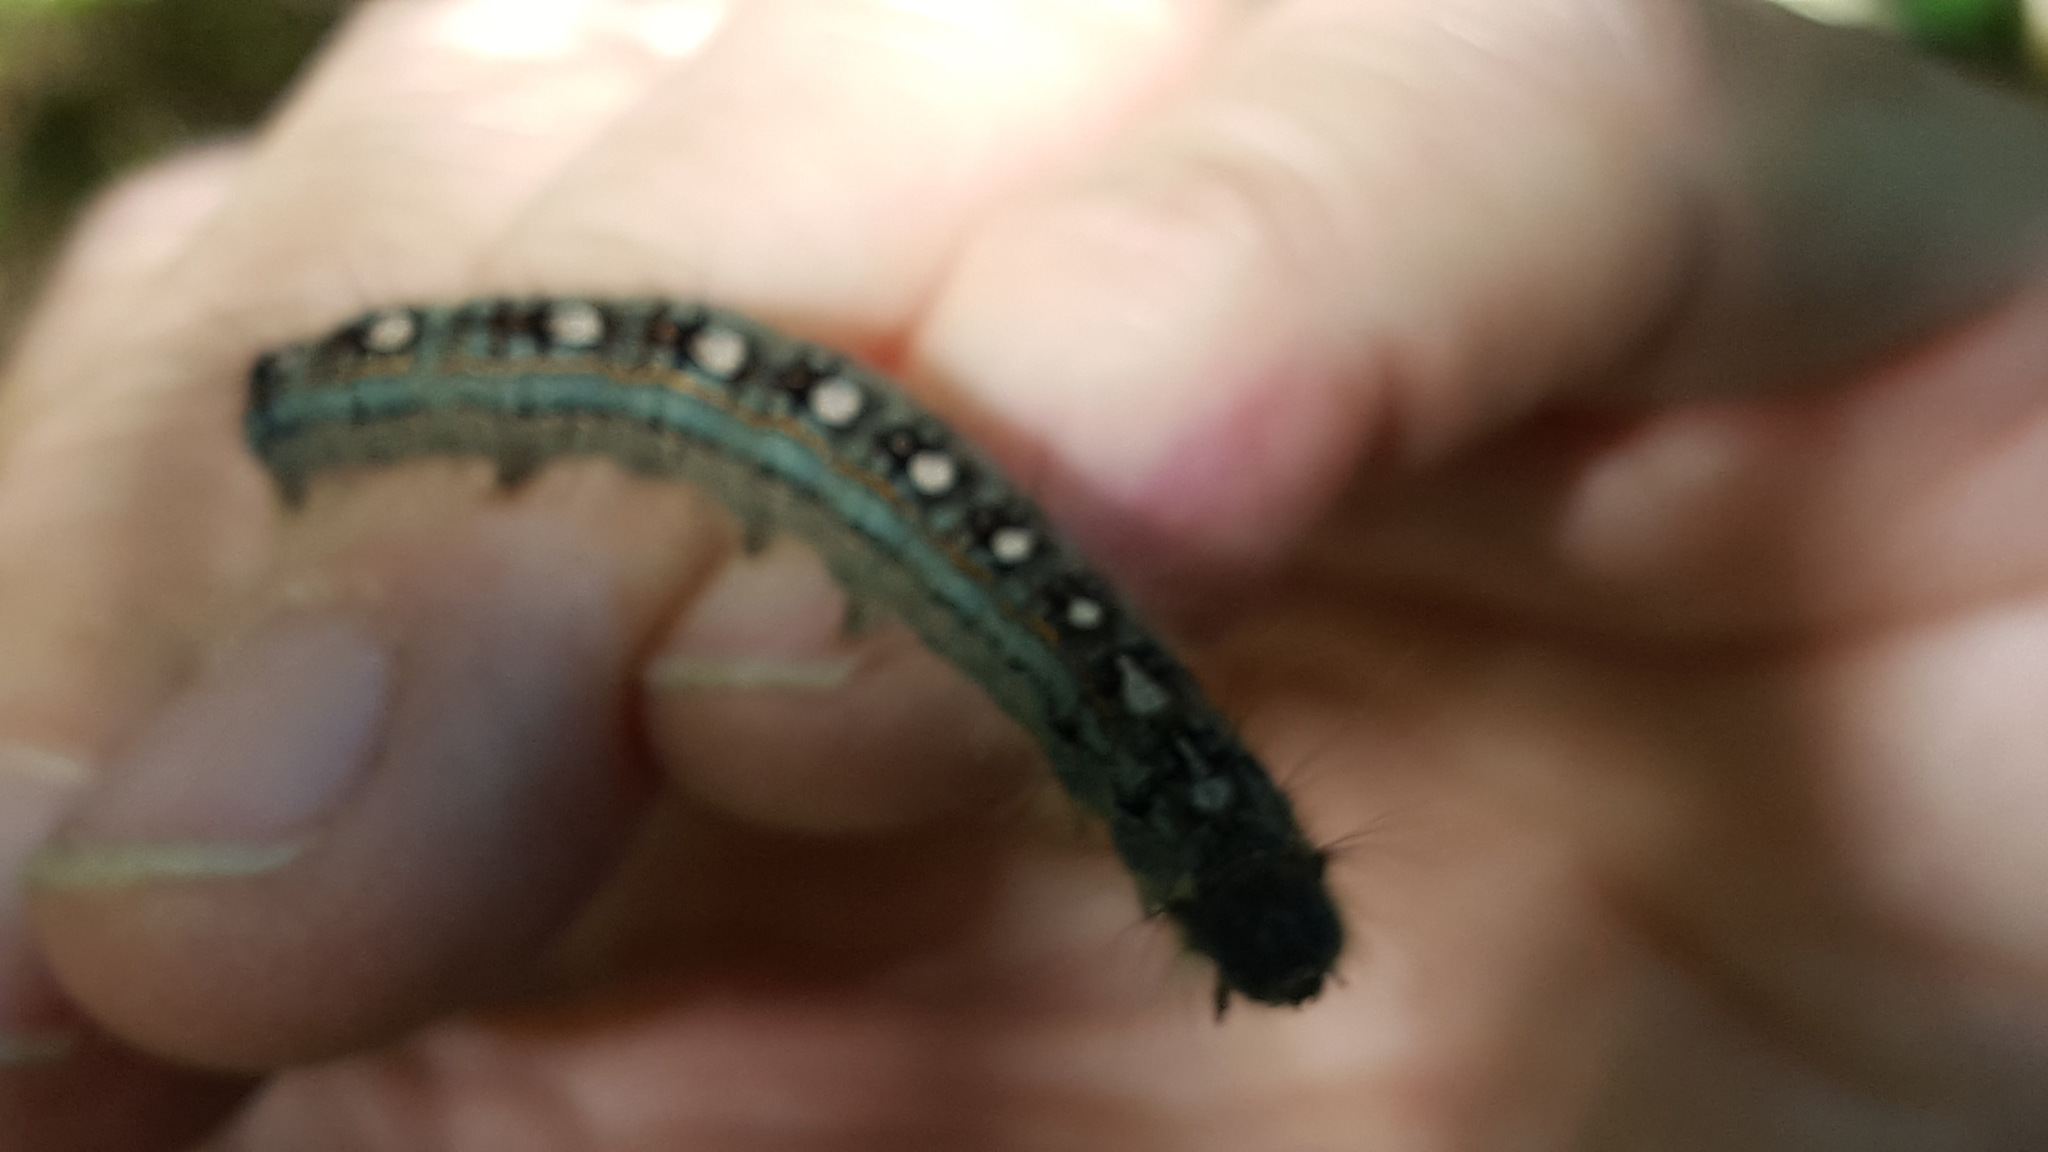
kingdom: Animalia
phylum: Arthropoda
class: Insecta
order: Lepidoptera
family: Lasiocampidae
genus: Malacosoma
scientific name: Malacosoma disstria
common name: Forest tent caterpillar
